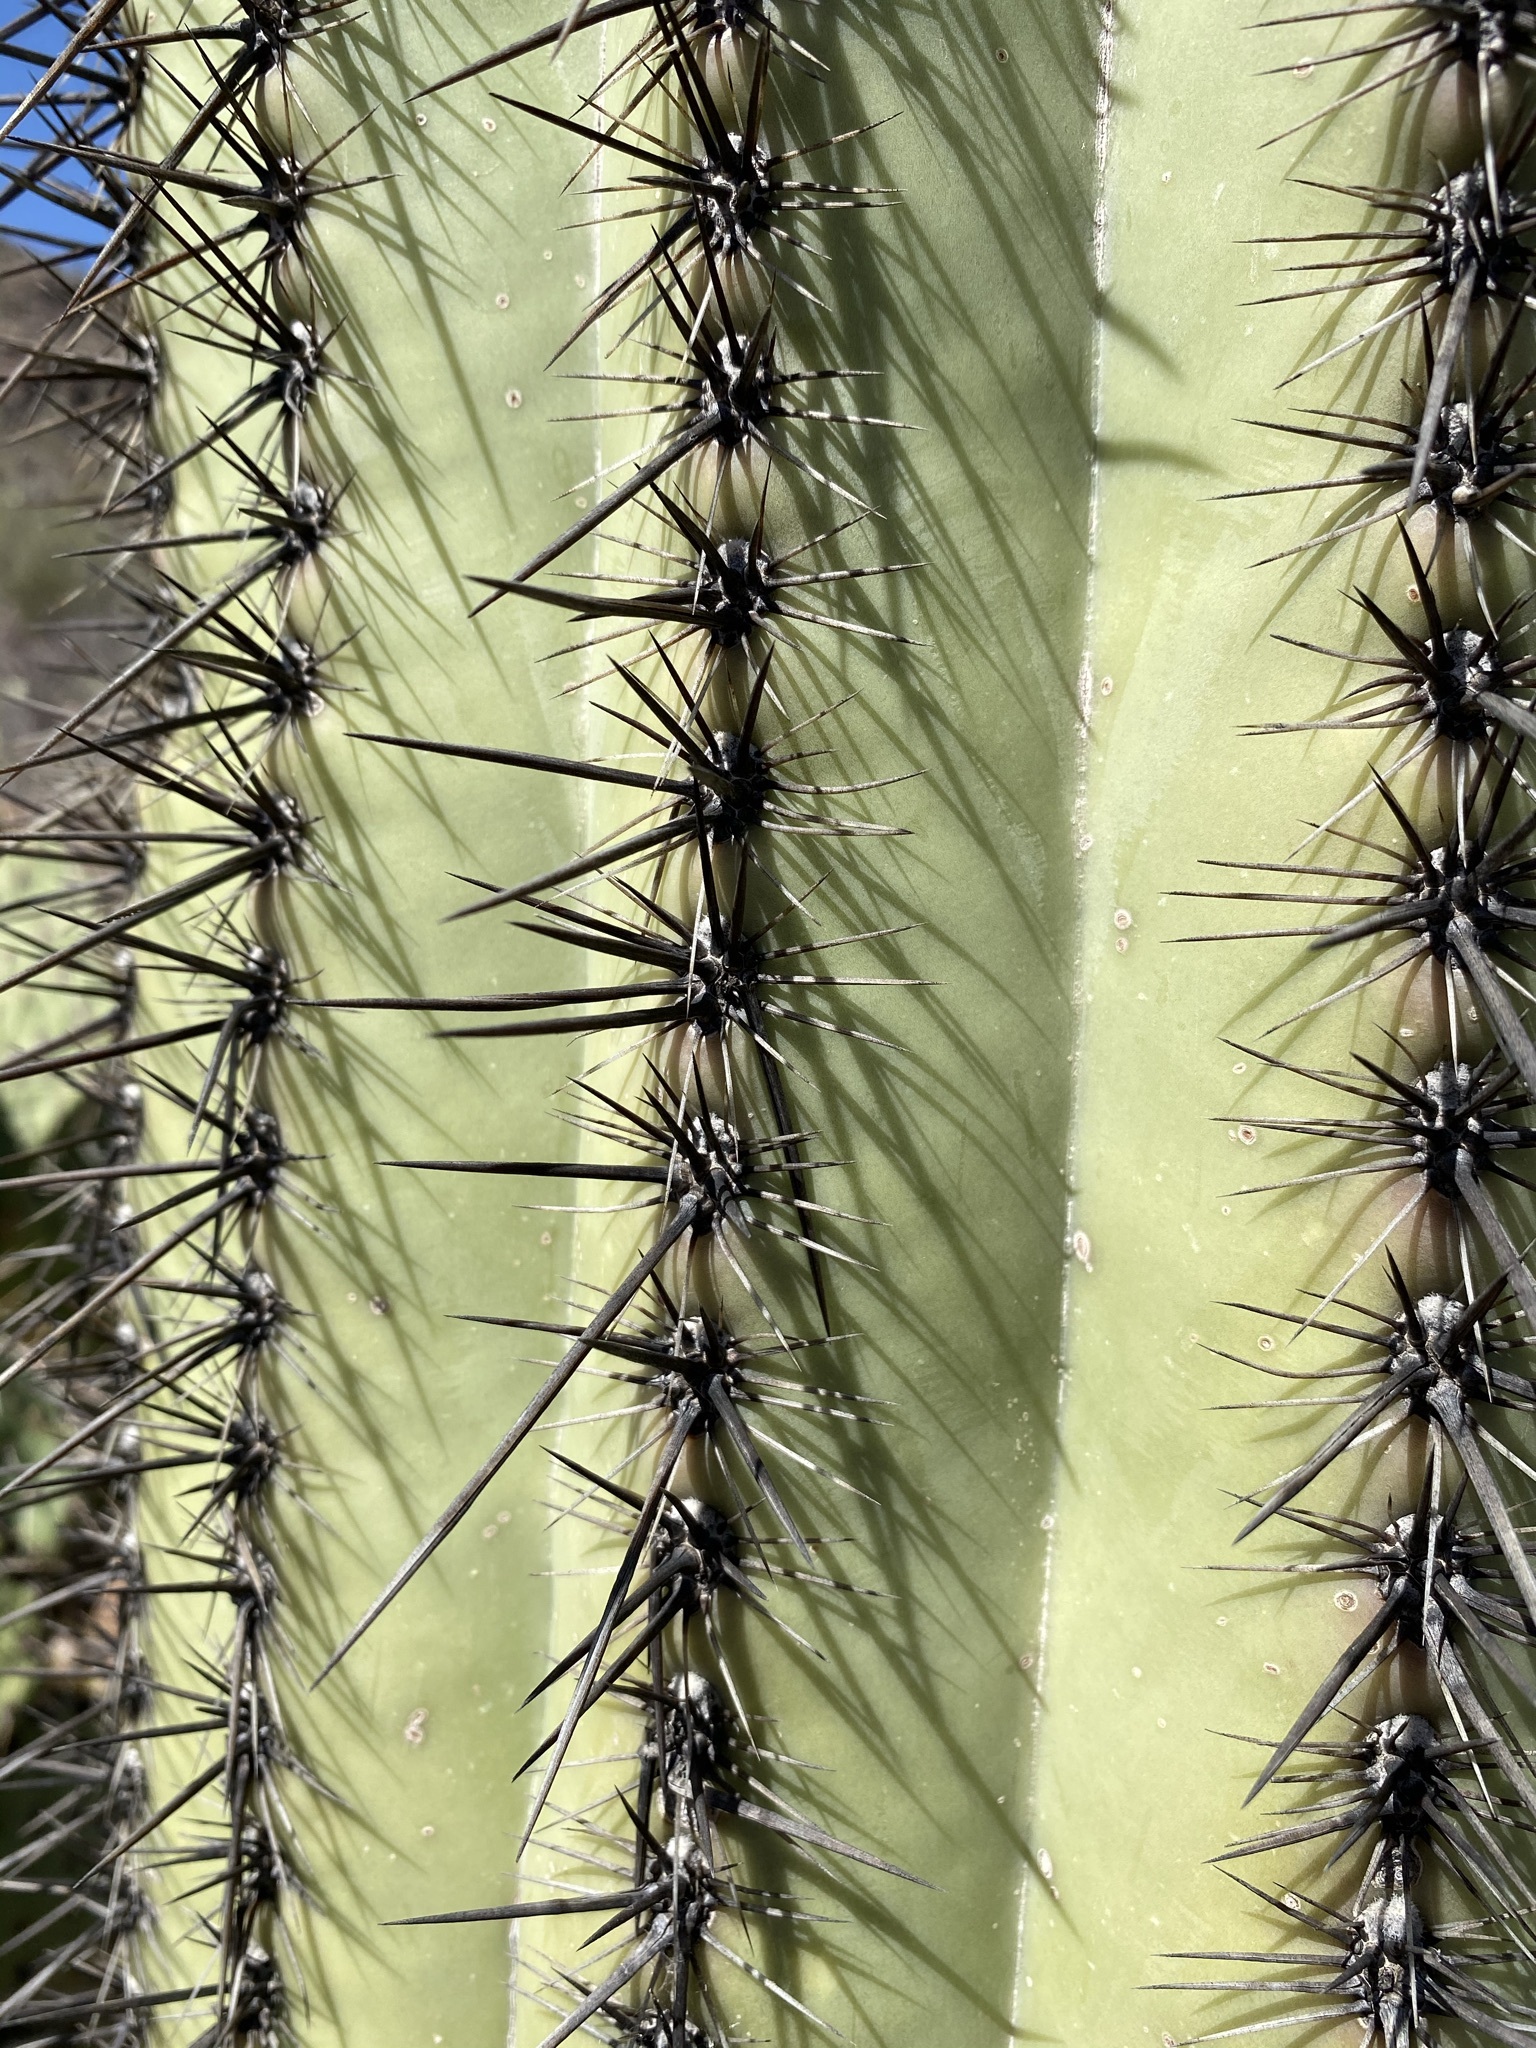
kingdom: Plantae
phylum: Tracheophyta
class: Magnoliopsida
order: Caryophyllales
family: Cactaceae
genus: Carnegiea
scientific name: Carnegiea gigantea
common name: Saguaro
